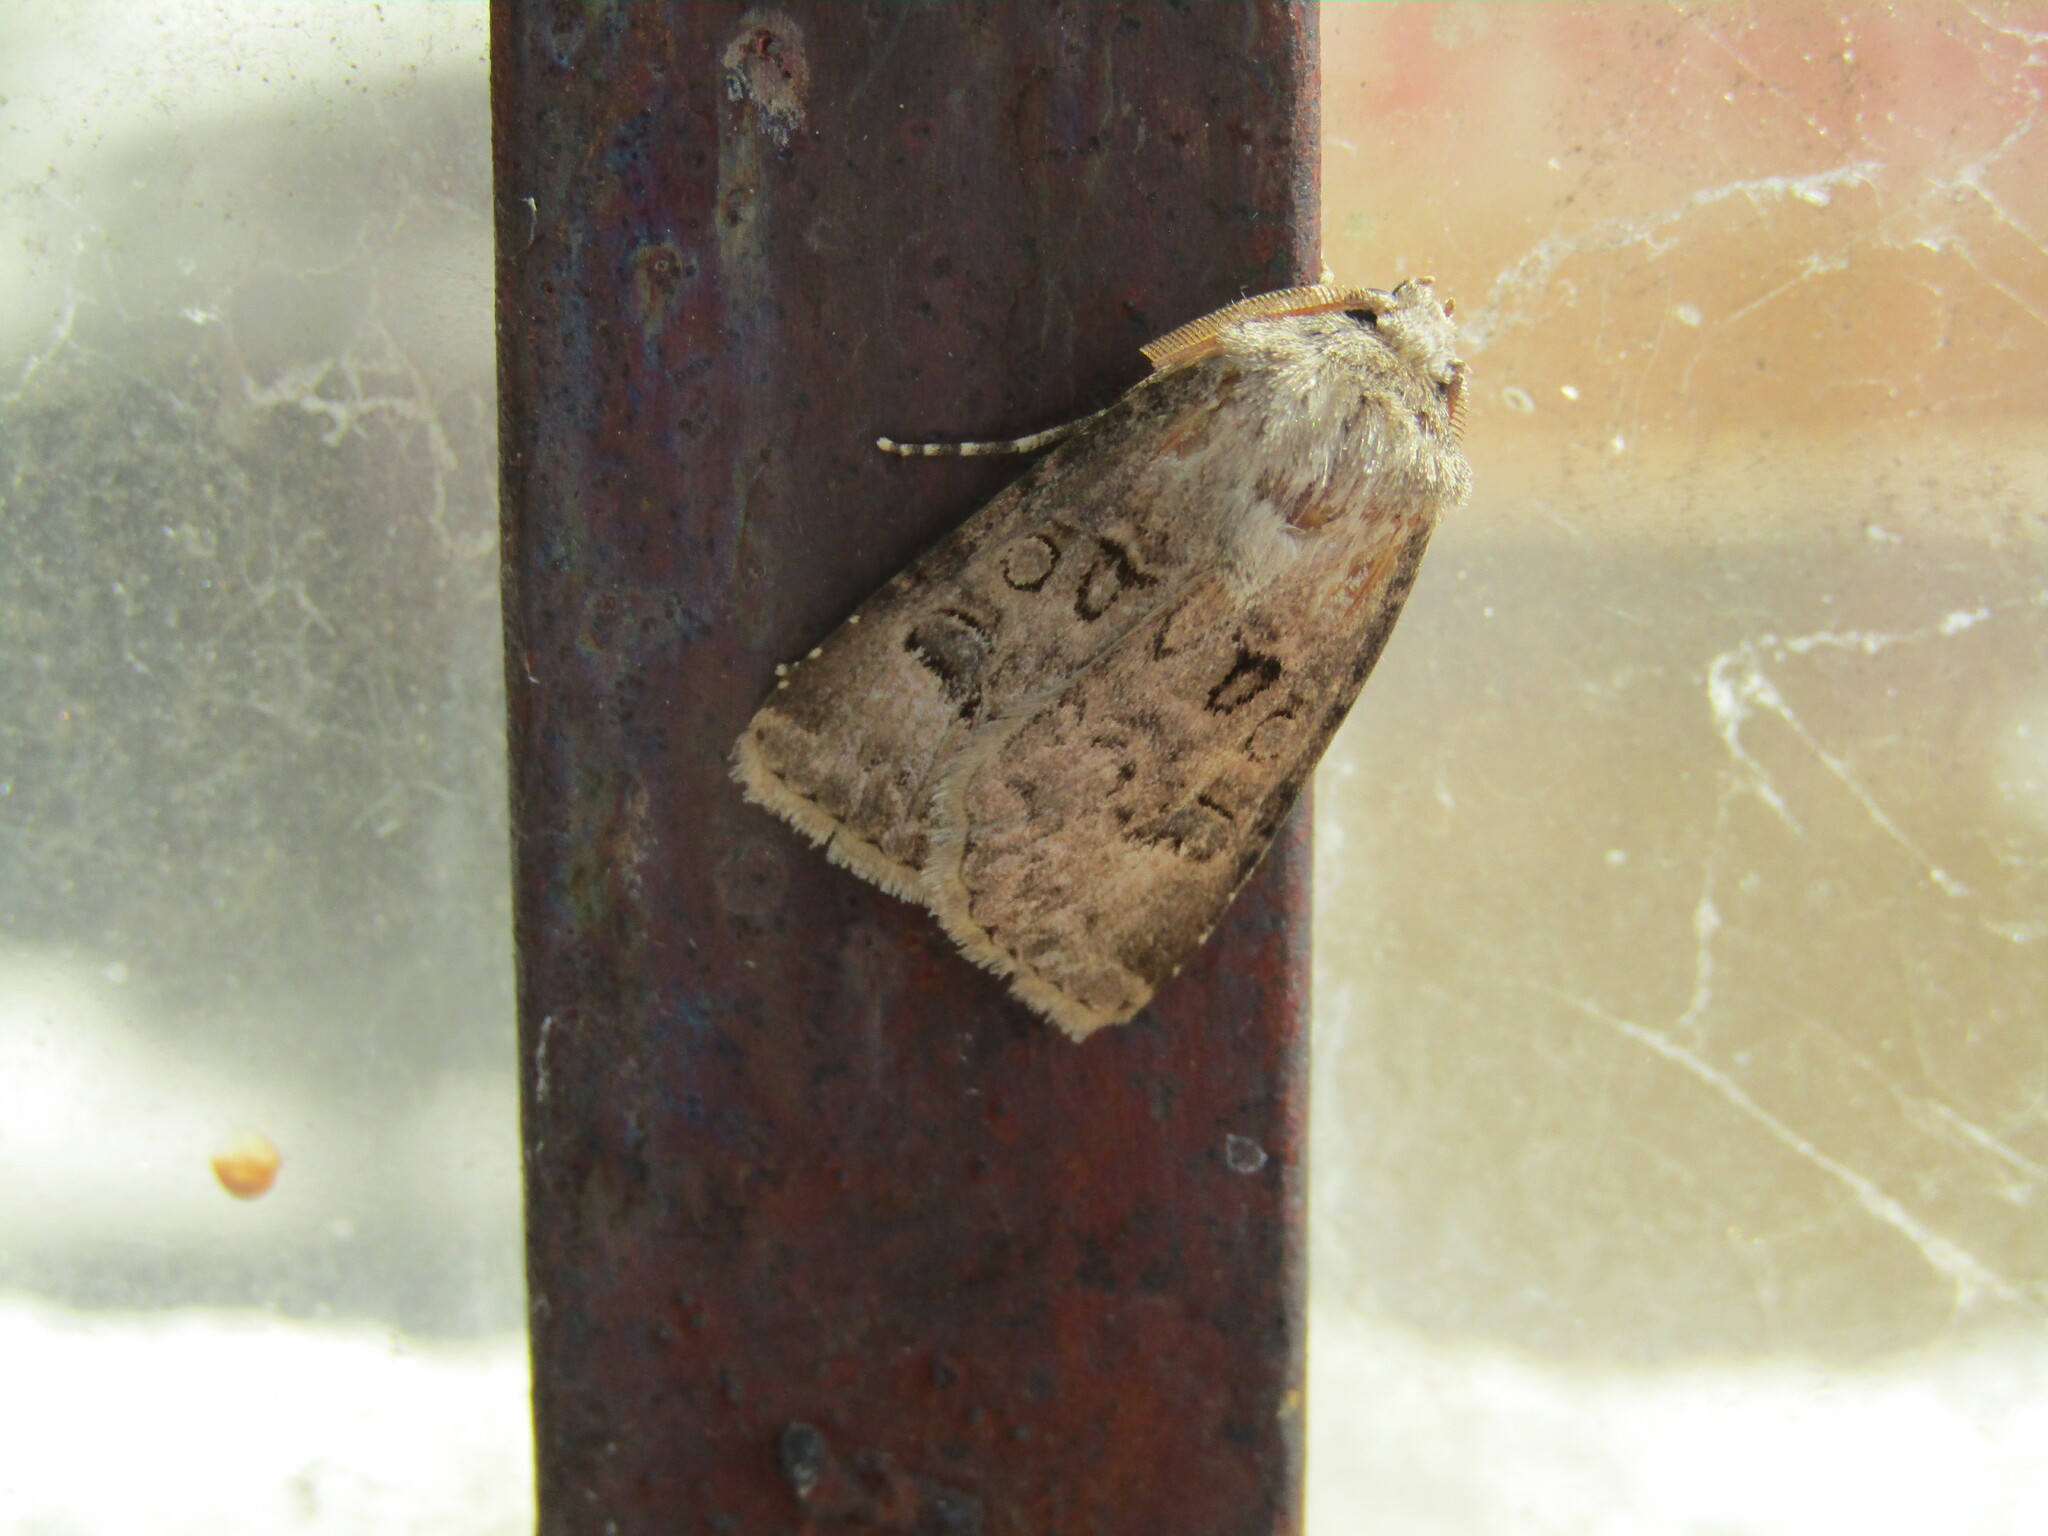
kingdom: Animalia
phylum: Arthropoda
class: Insecta
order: Lepidoptera
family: Noctuidae
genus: Agrotis
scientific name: Agrotis bigramma
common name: Great dart
